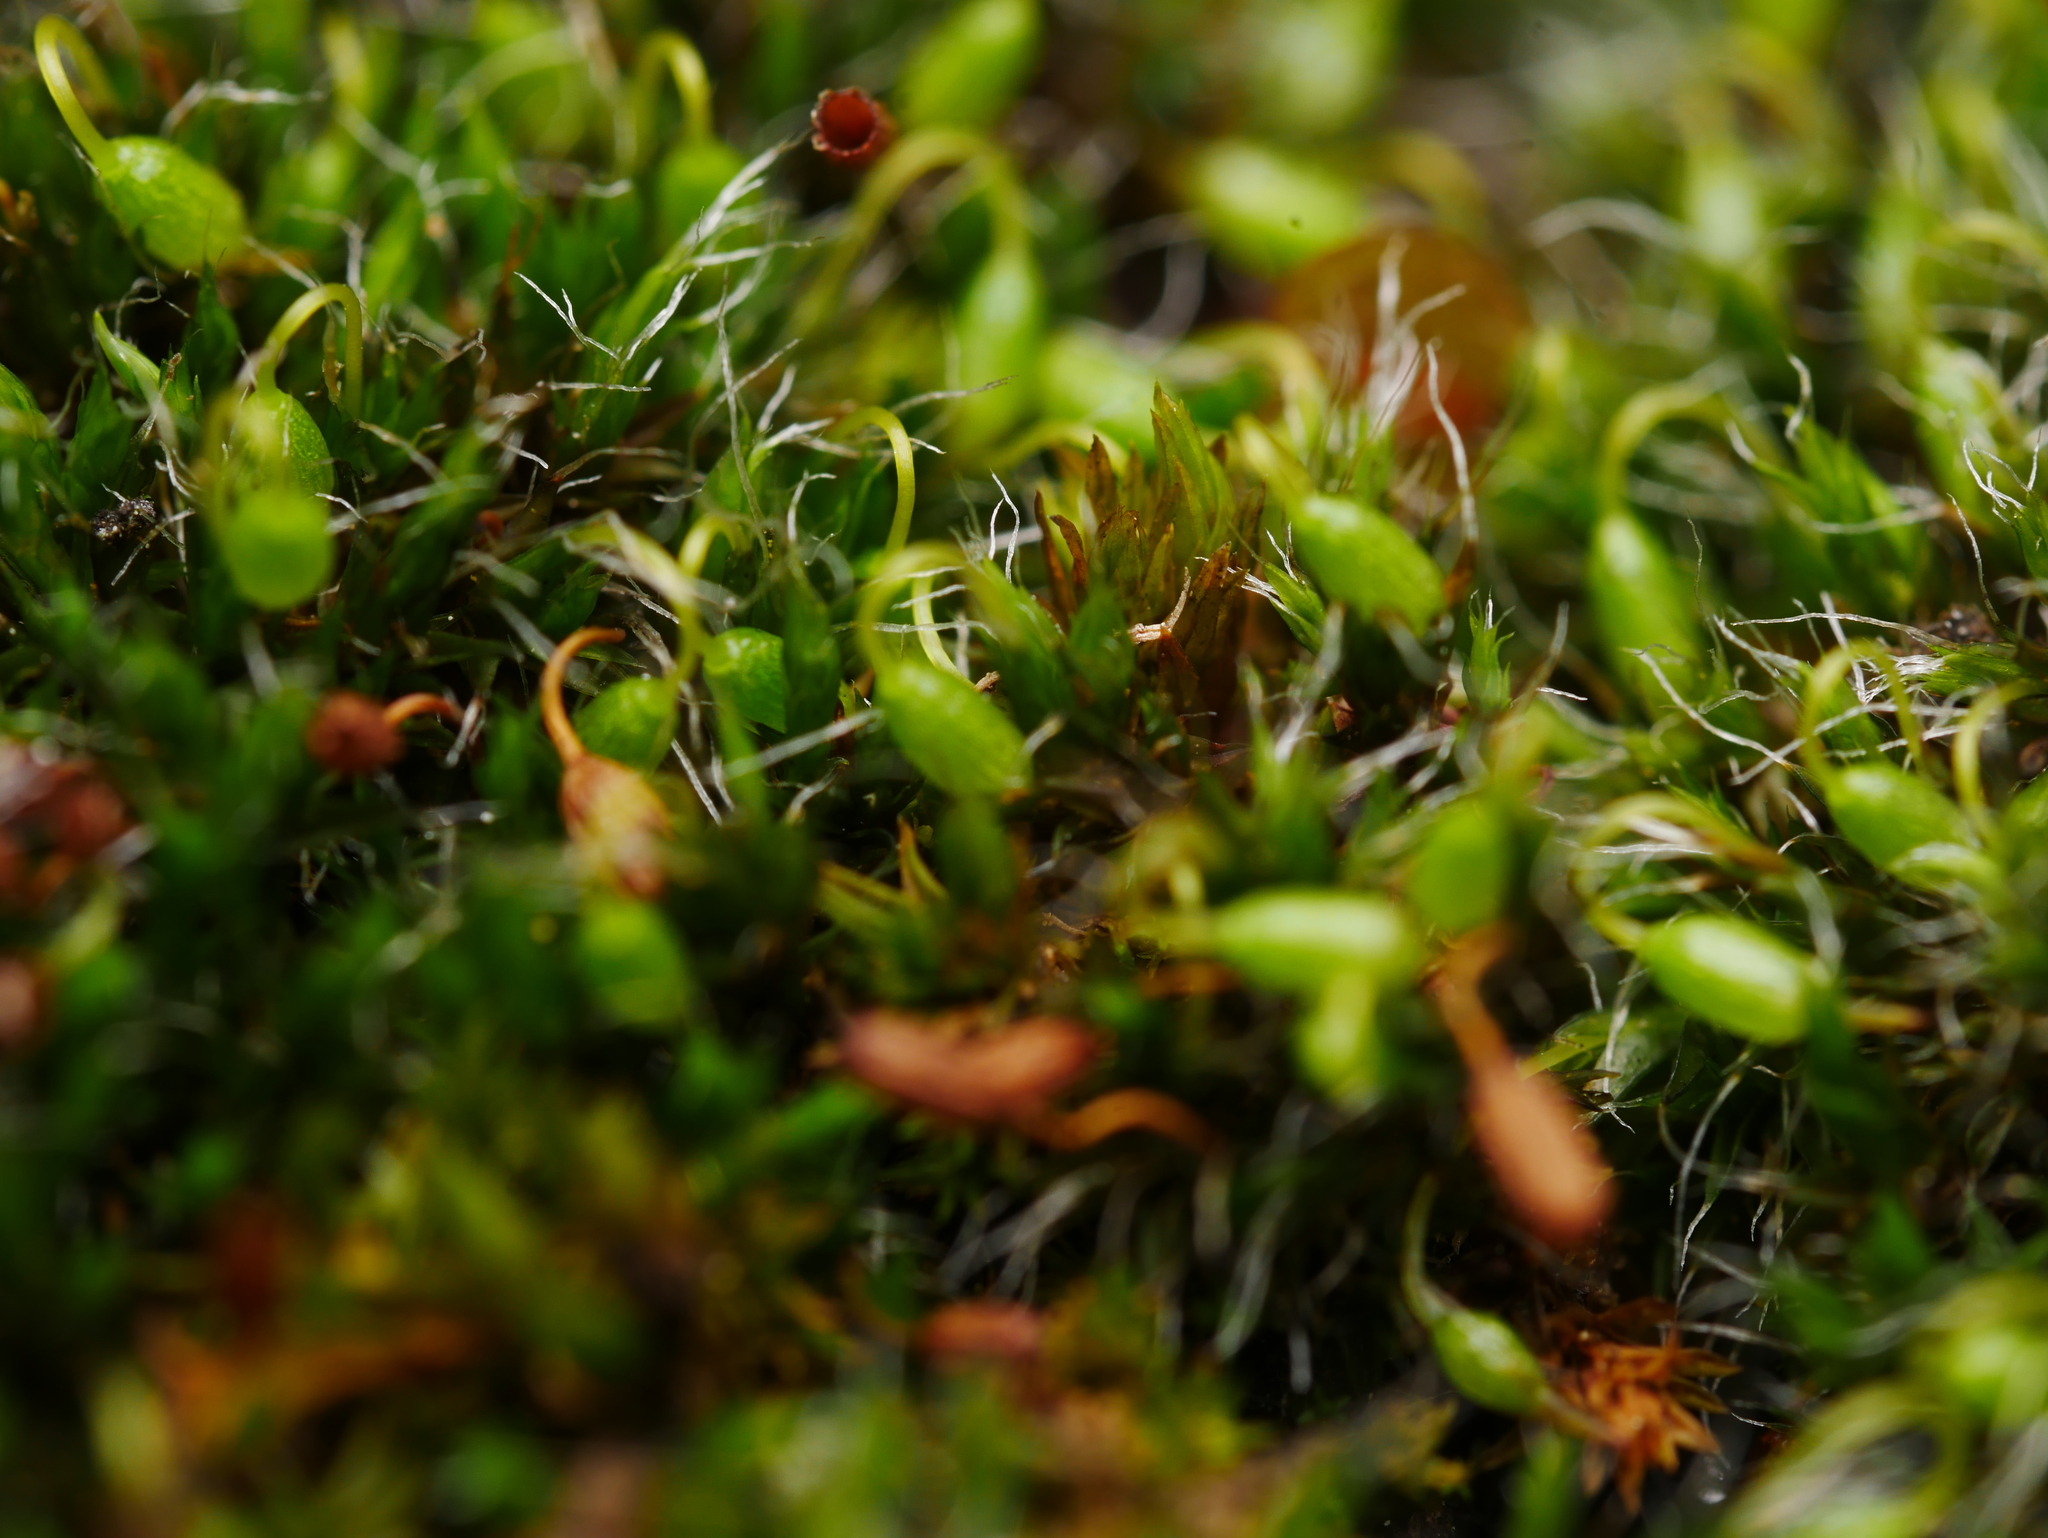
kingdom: Plantae
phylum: Bryophyta
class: Bryopsida
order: Grimmiales
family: Grimmiaceae
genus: Grimmia
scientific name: Grimmia pulvinata
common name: Grey-cushioned grimmia
